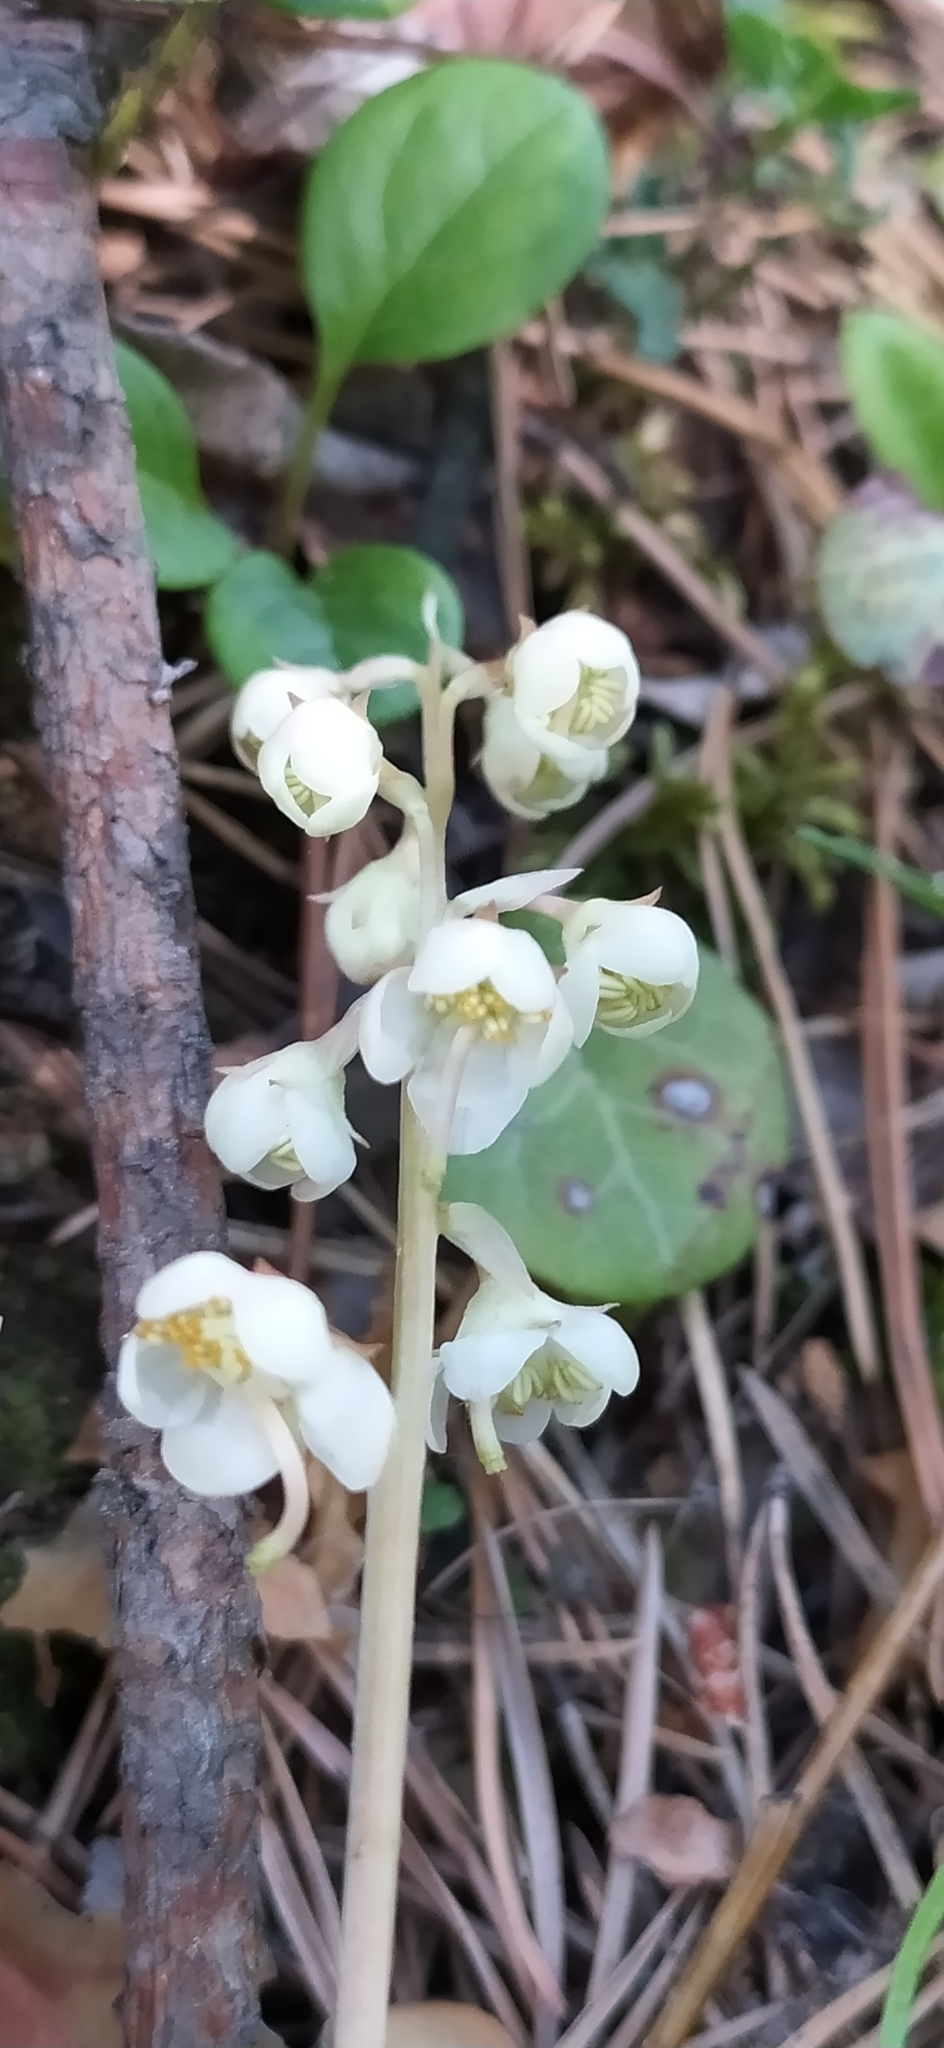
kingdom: Plantae
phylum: Tracheophyta
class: Magnoliopsida
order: Ericales
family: Ericaceae
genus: Pyrola
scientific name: Pyrola rotundifolia
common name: Round-leaved wintergreen
